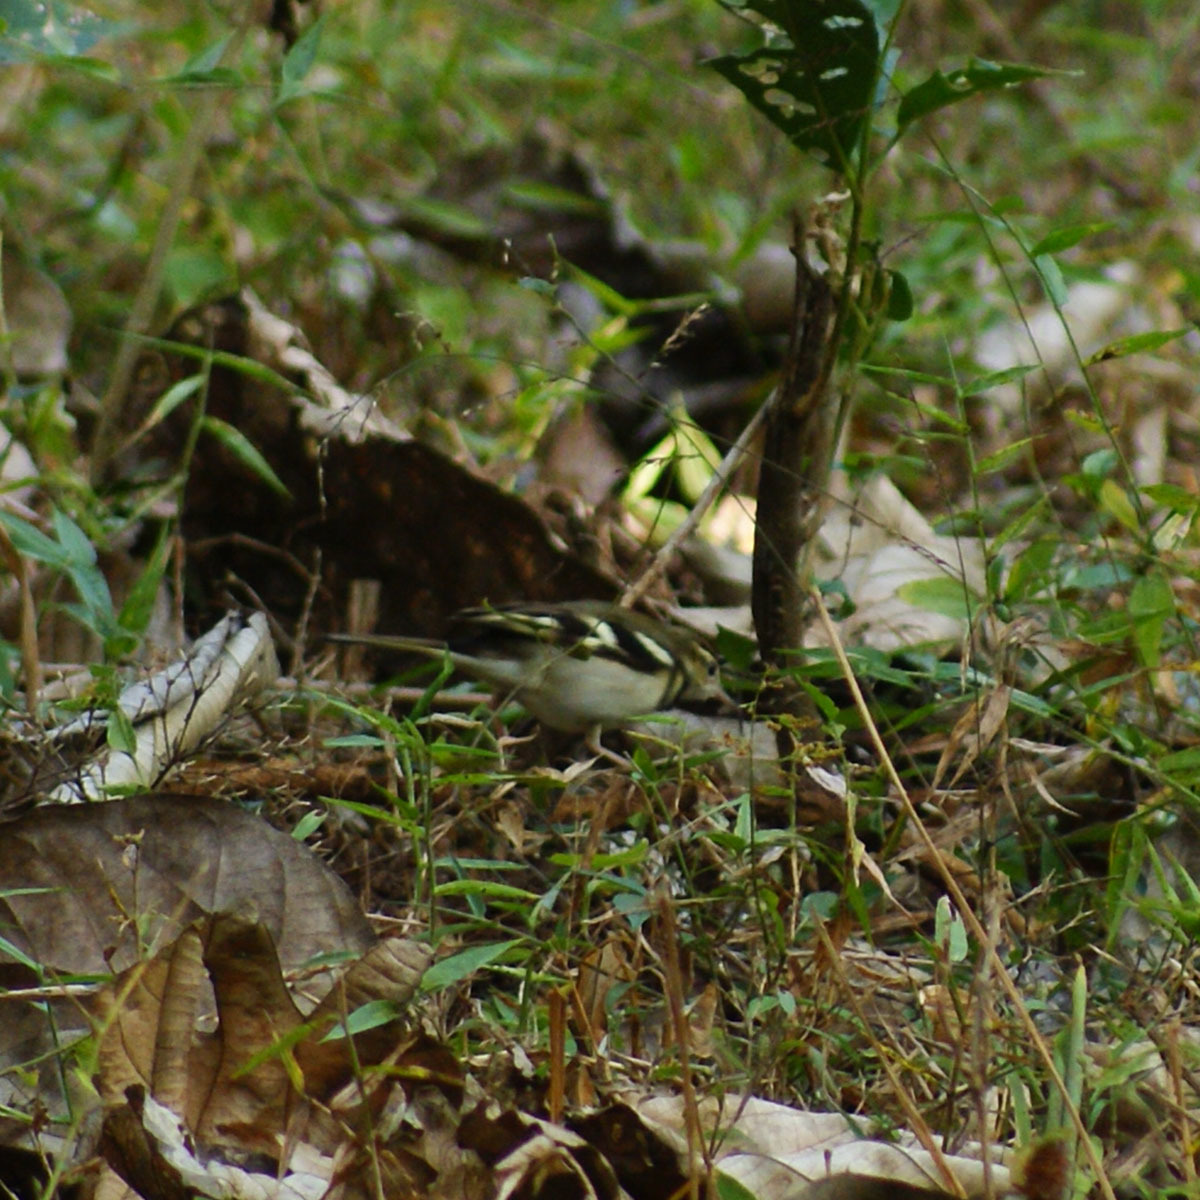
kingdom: Animalia
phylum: Chordata
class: Aves
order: Passeriformes
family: Motacillidae
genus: Dendronanthus
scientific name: Dendronanthus indicus
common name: Forest wagtail
